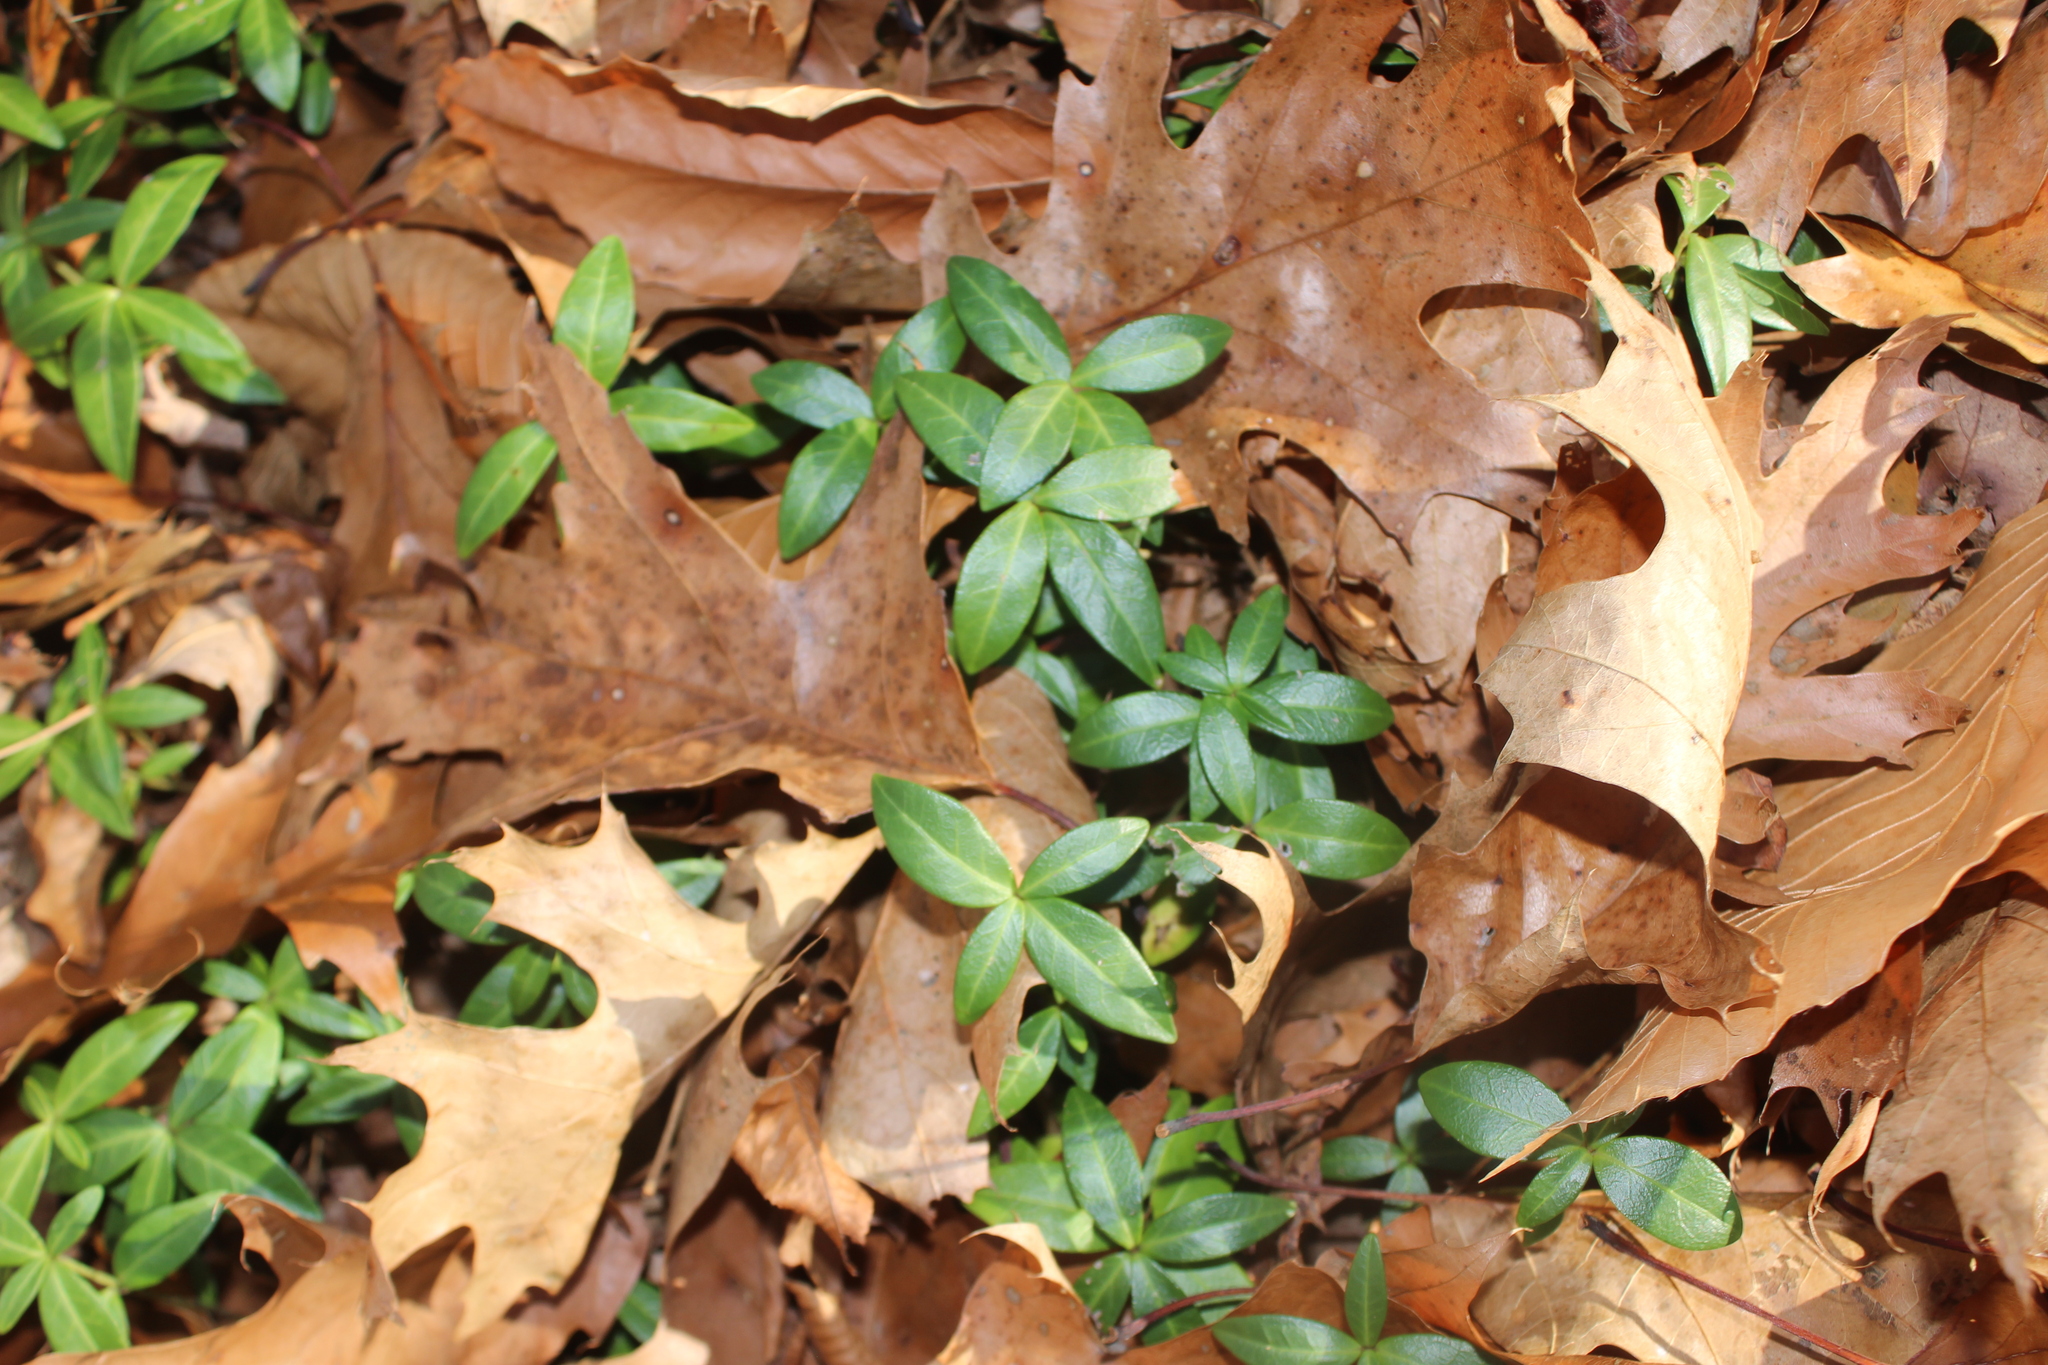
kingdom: Plantae
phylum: Tracheophyta
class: Magnoliopsida
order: Gentianales
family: Apocynaceae
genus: Vinca
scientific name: Vinca minor
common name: Lesser periwinkle
